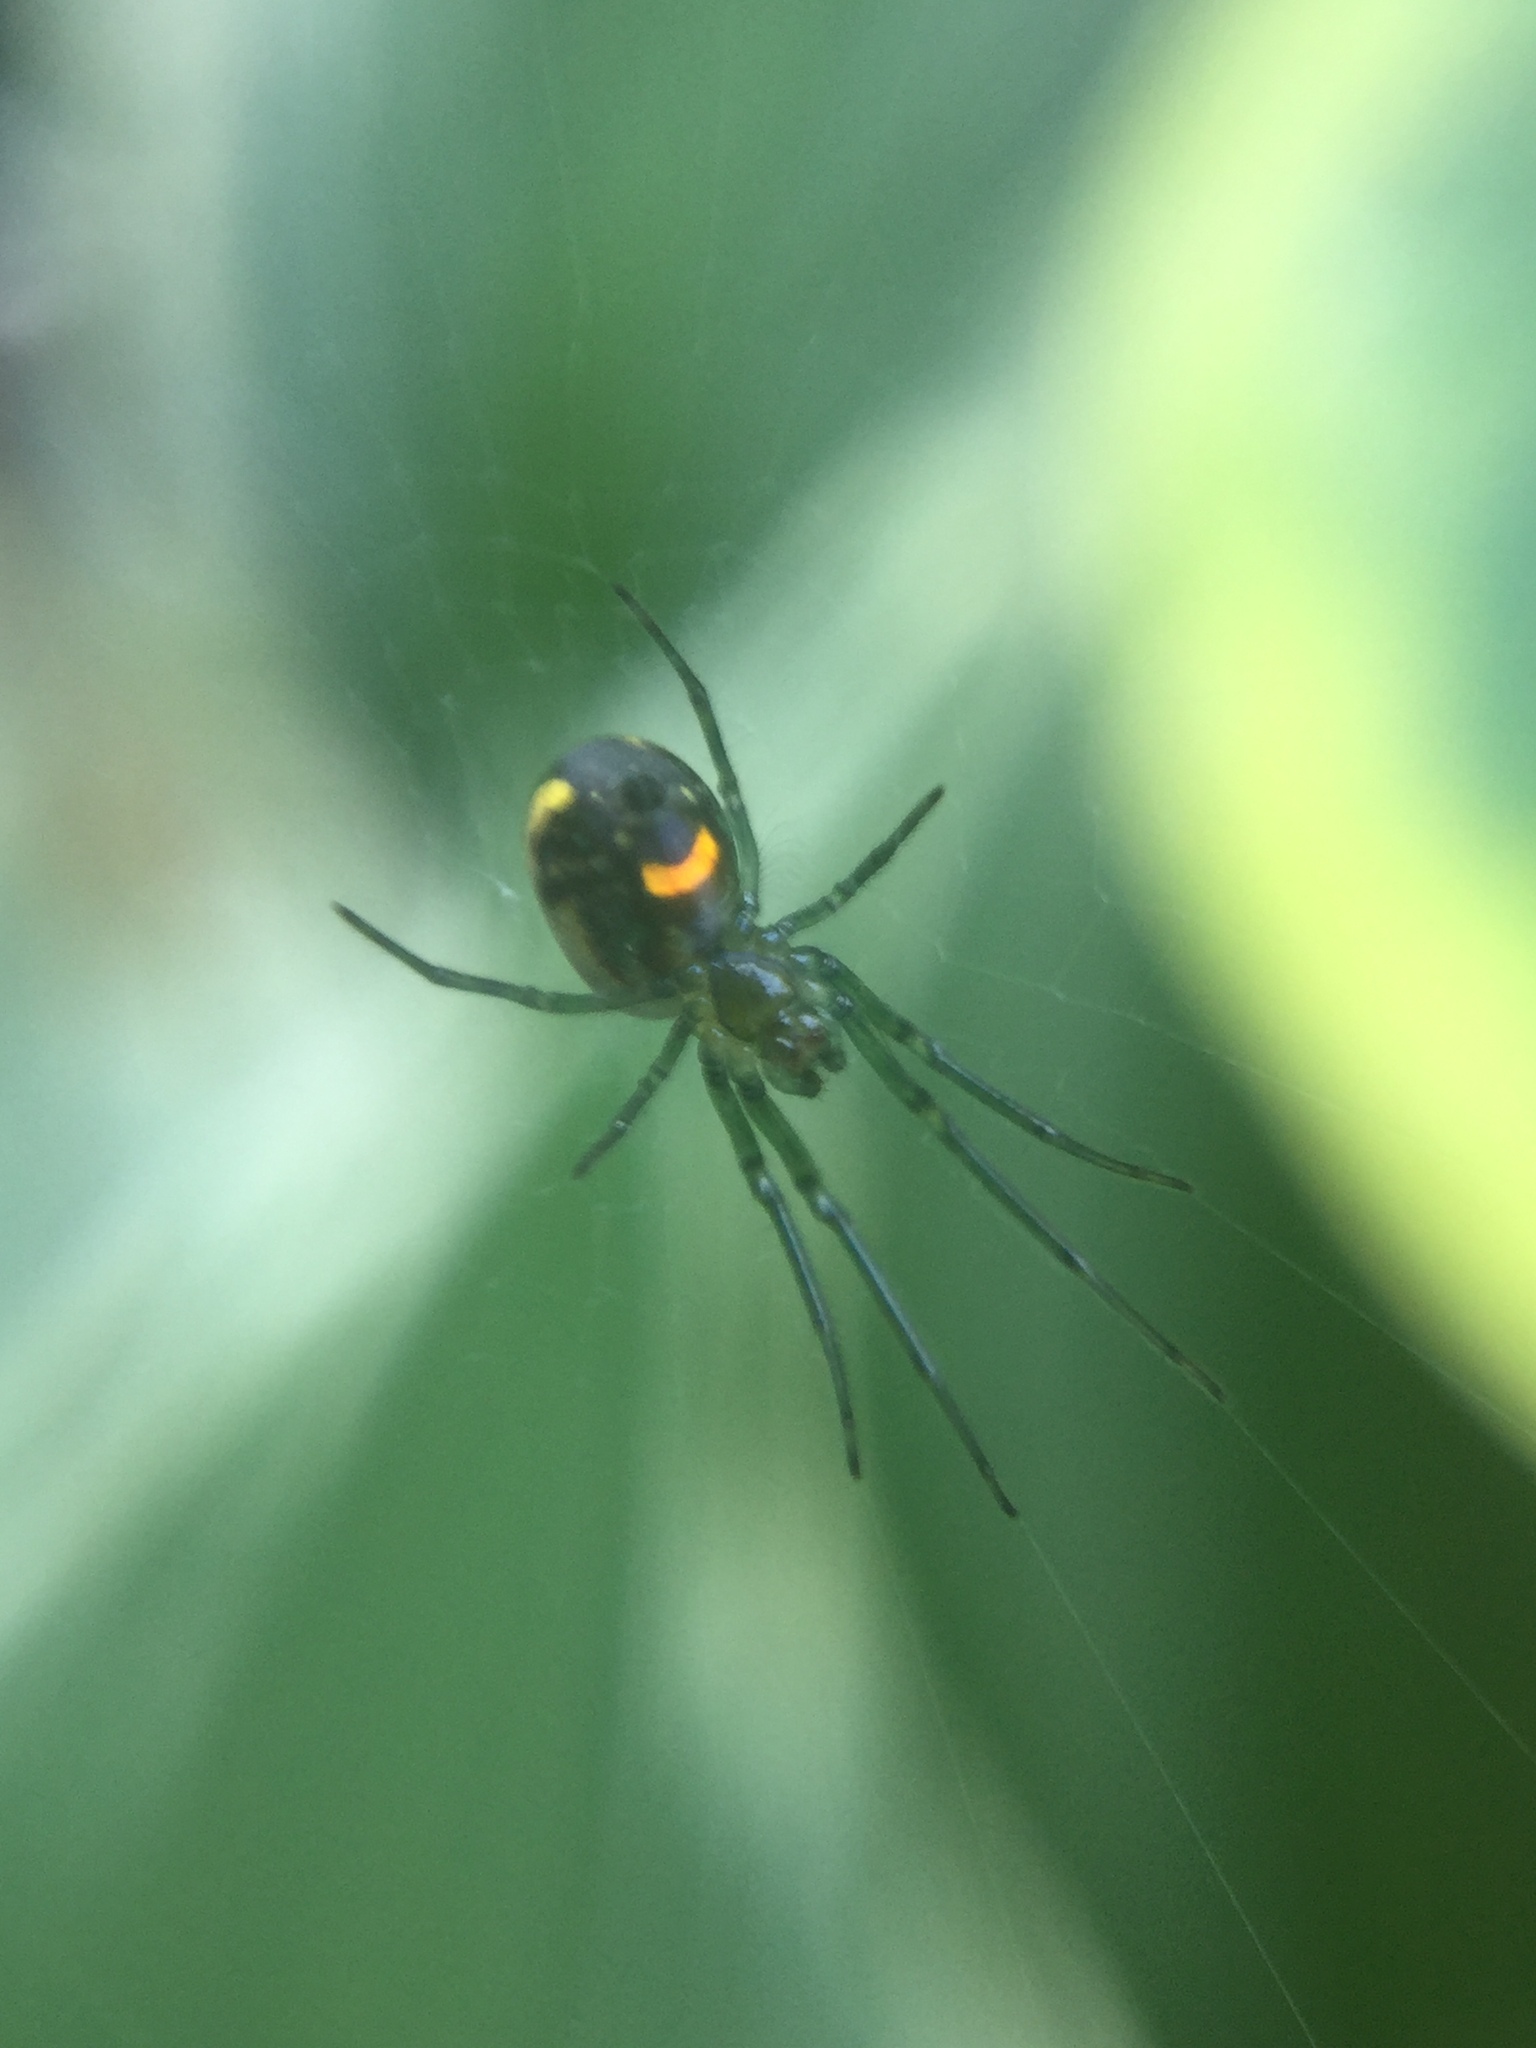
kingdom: Animalia
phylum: Arthropoda
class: Arachnida
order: Araneae
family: Tetragnathidae
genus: Leucauge
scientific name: Leucauge venusta
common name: Longjawed orb weavers
